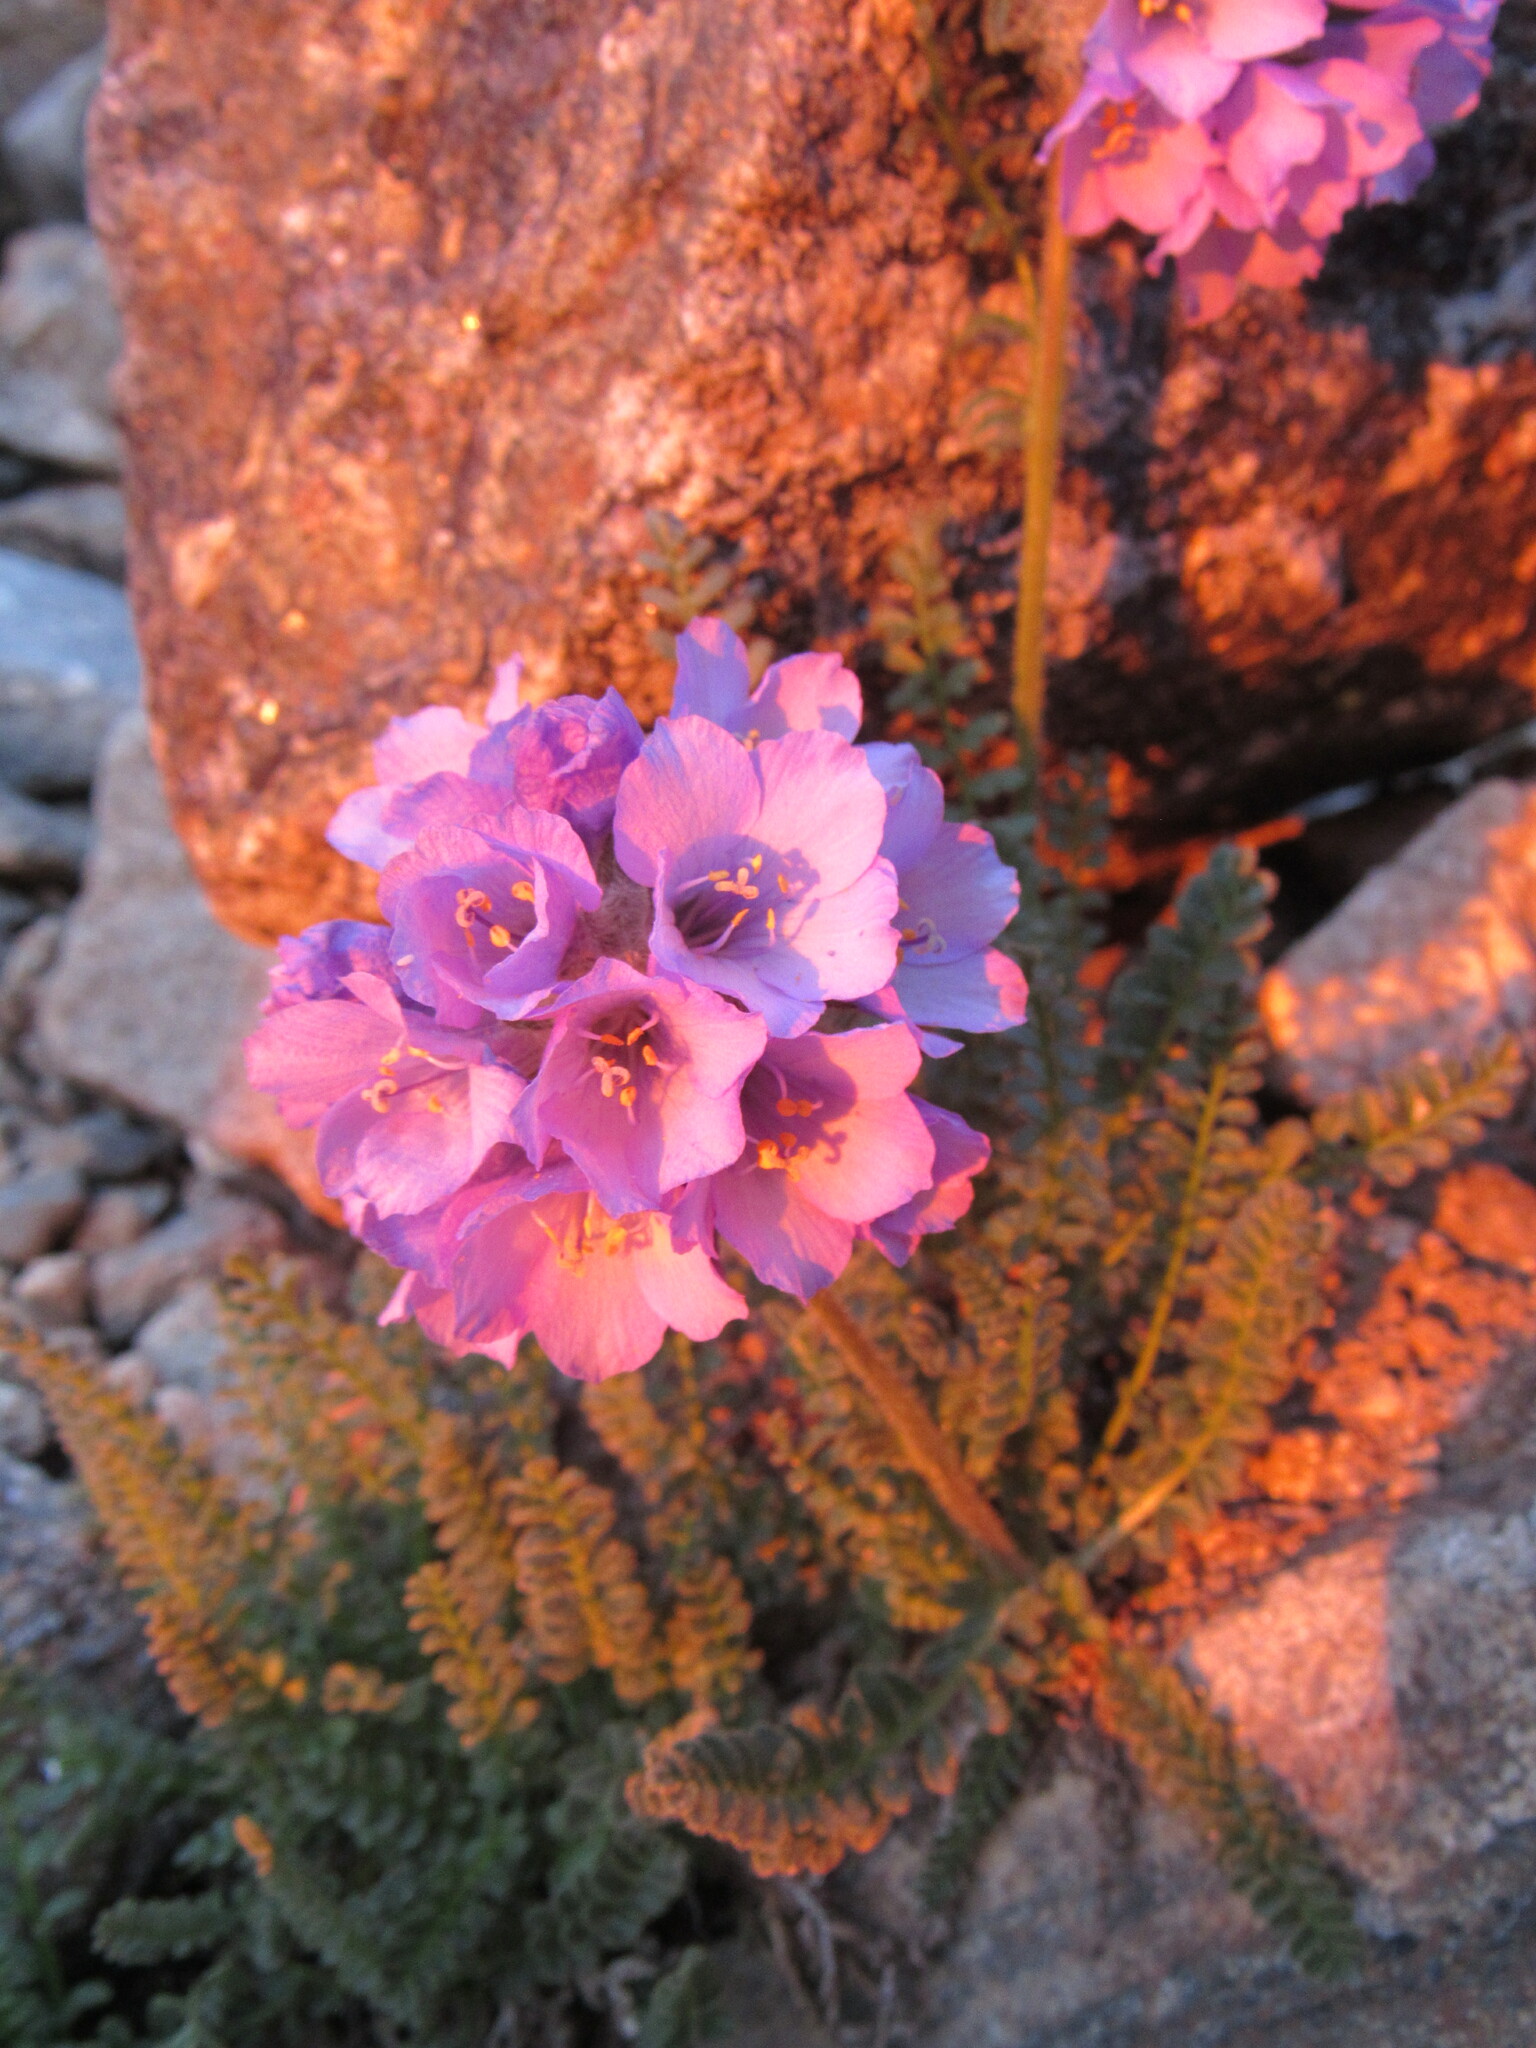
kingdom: Plantae
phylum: Tracheophyta
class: Magnoliopsida
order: Ericales
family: Polemoniaceae
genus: Polemonium
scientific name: Polemonium viscosum
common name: Skunk jacob's-ladder
